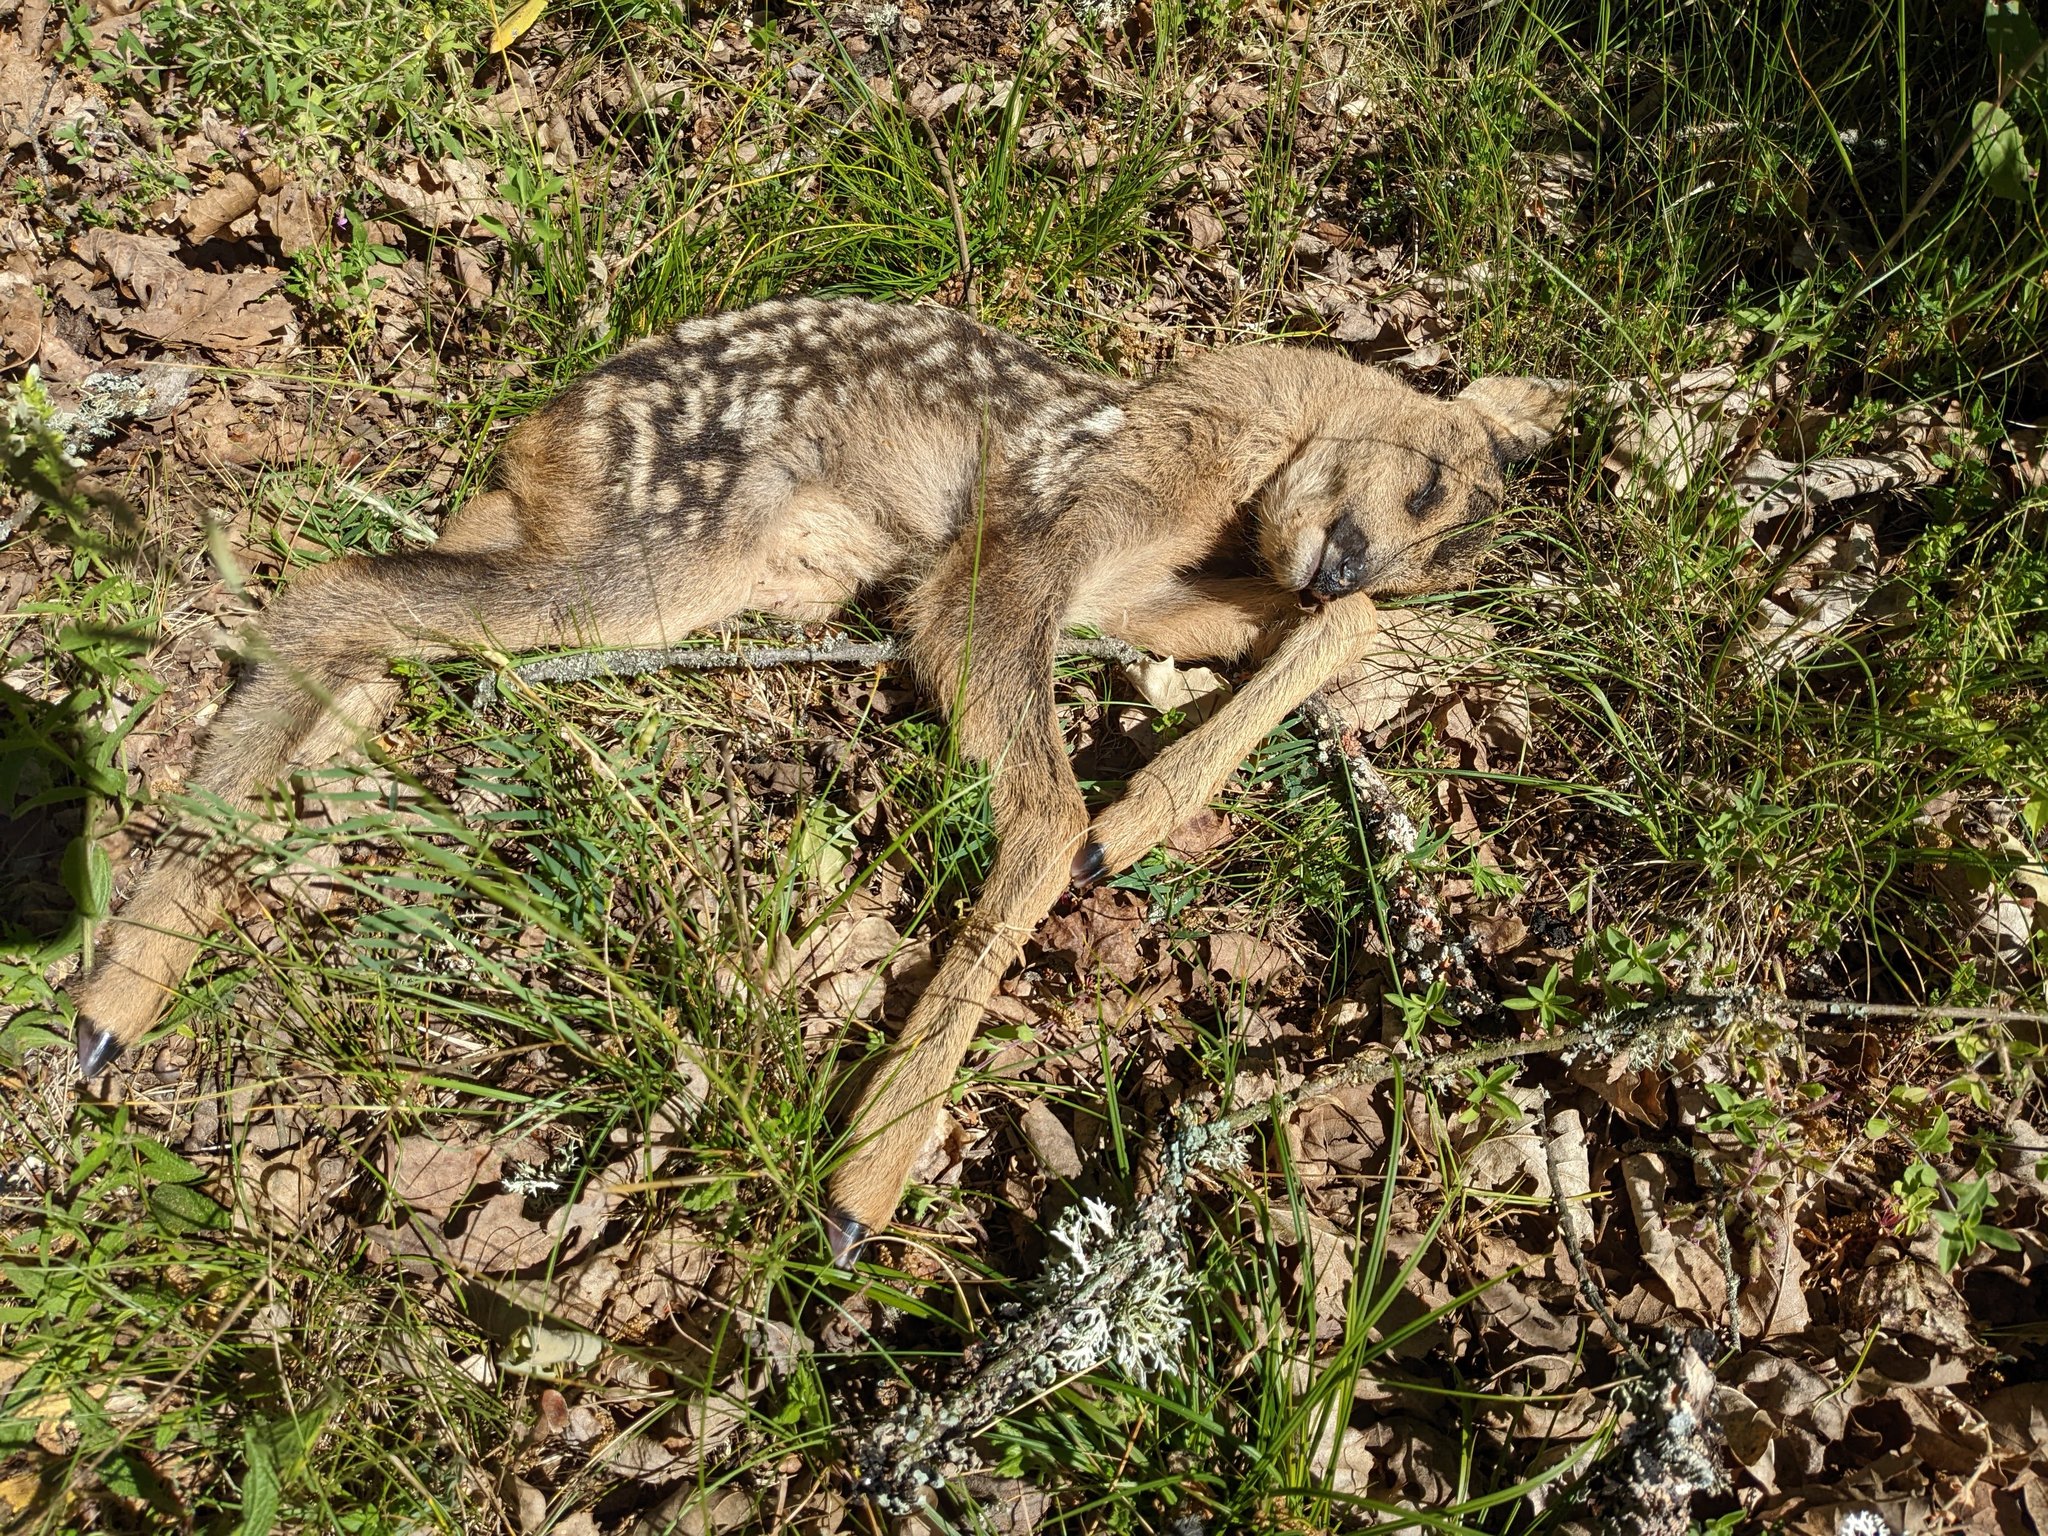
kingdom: Animalia
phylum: Chordata
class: Mammalia
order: Artiodactyla
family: Cervidae
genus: Capreolus
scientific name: Capreolus capreolus
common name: Western roe deer
